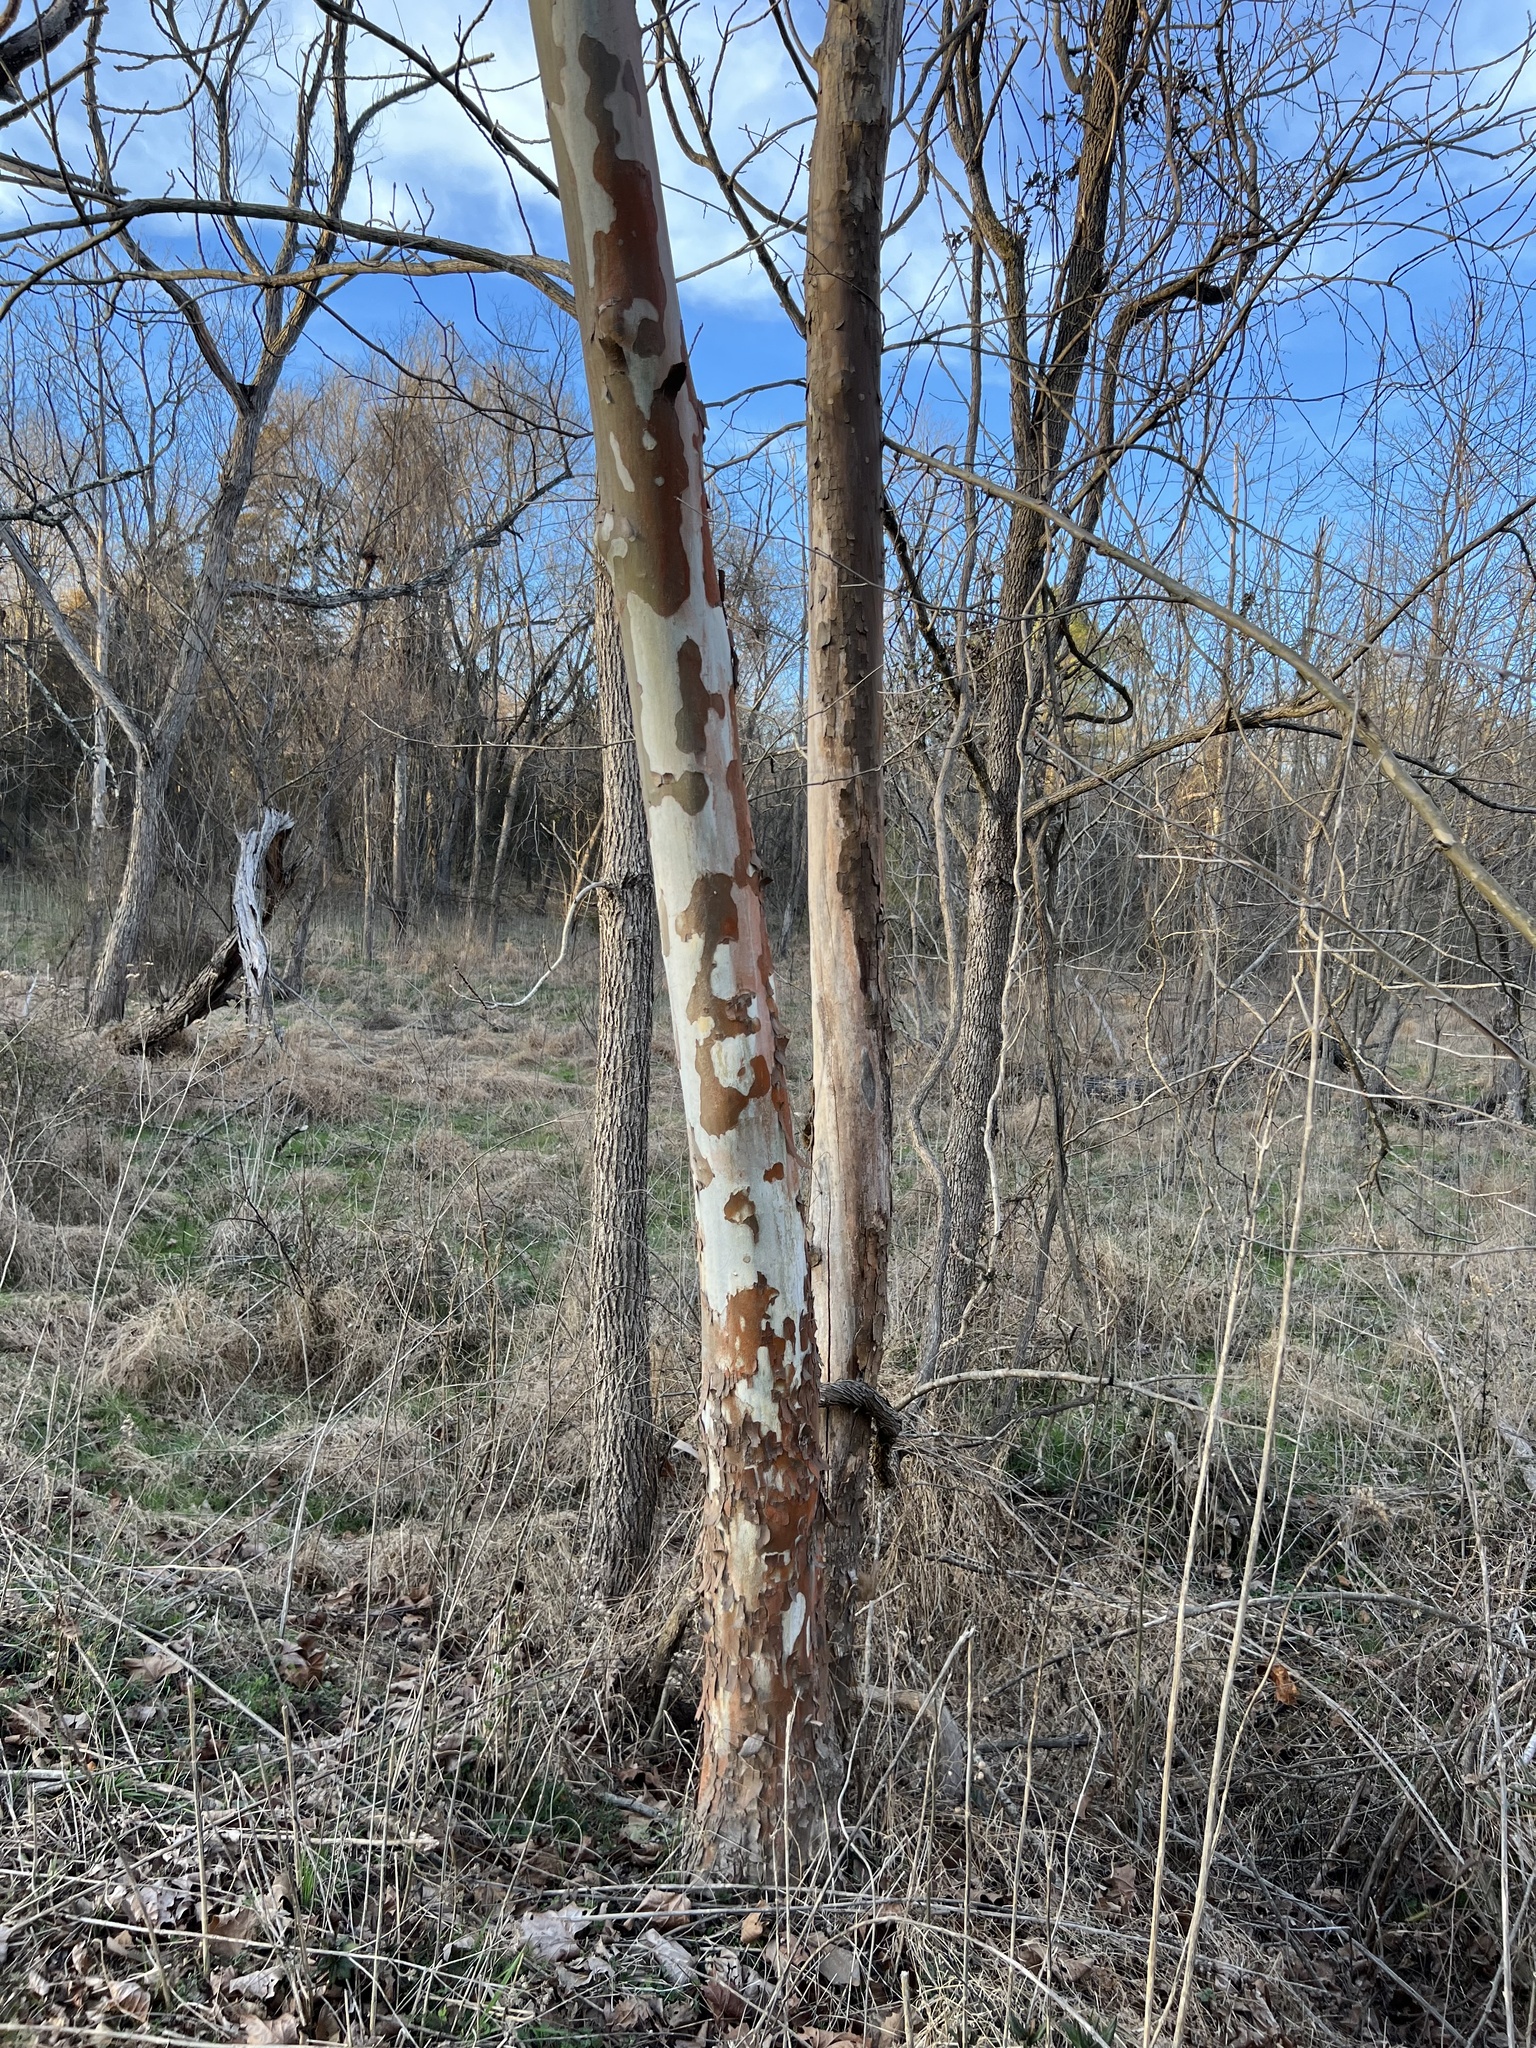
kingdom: Plantae
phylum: Tracheophyta
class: Magnoliopsida
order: Proteales
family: Platanaceae
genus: Platanus
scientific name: Platanus occidentalis
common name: American sycamore
